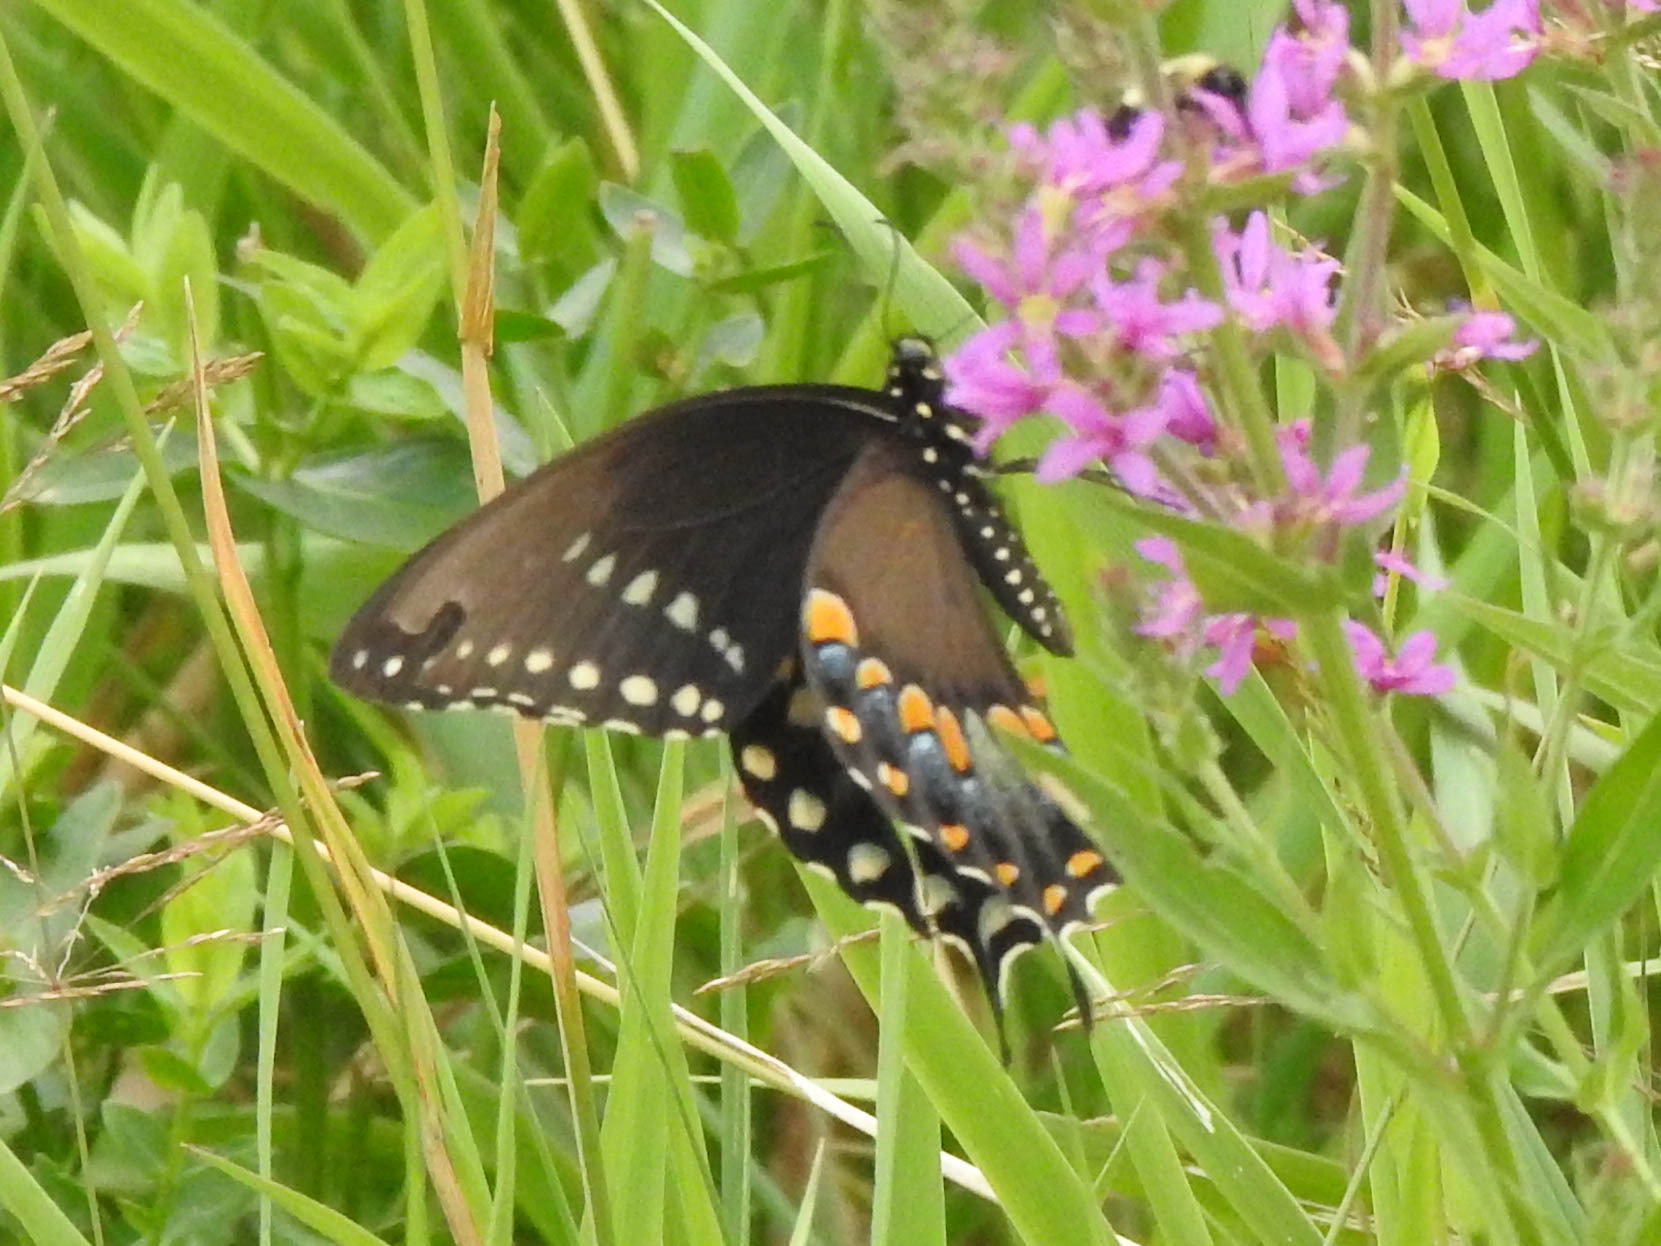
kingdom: Animalia
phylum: Arthropoda
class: Insecta
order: Lepidoptera
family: Papilionidae
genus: Papilio
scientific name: Papilio troilus
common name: Spicebush swallowtail
